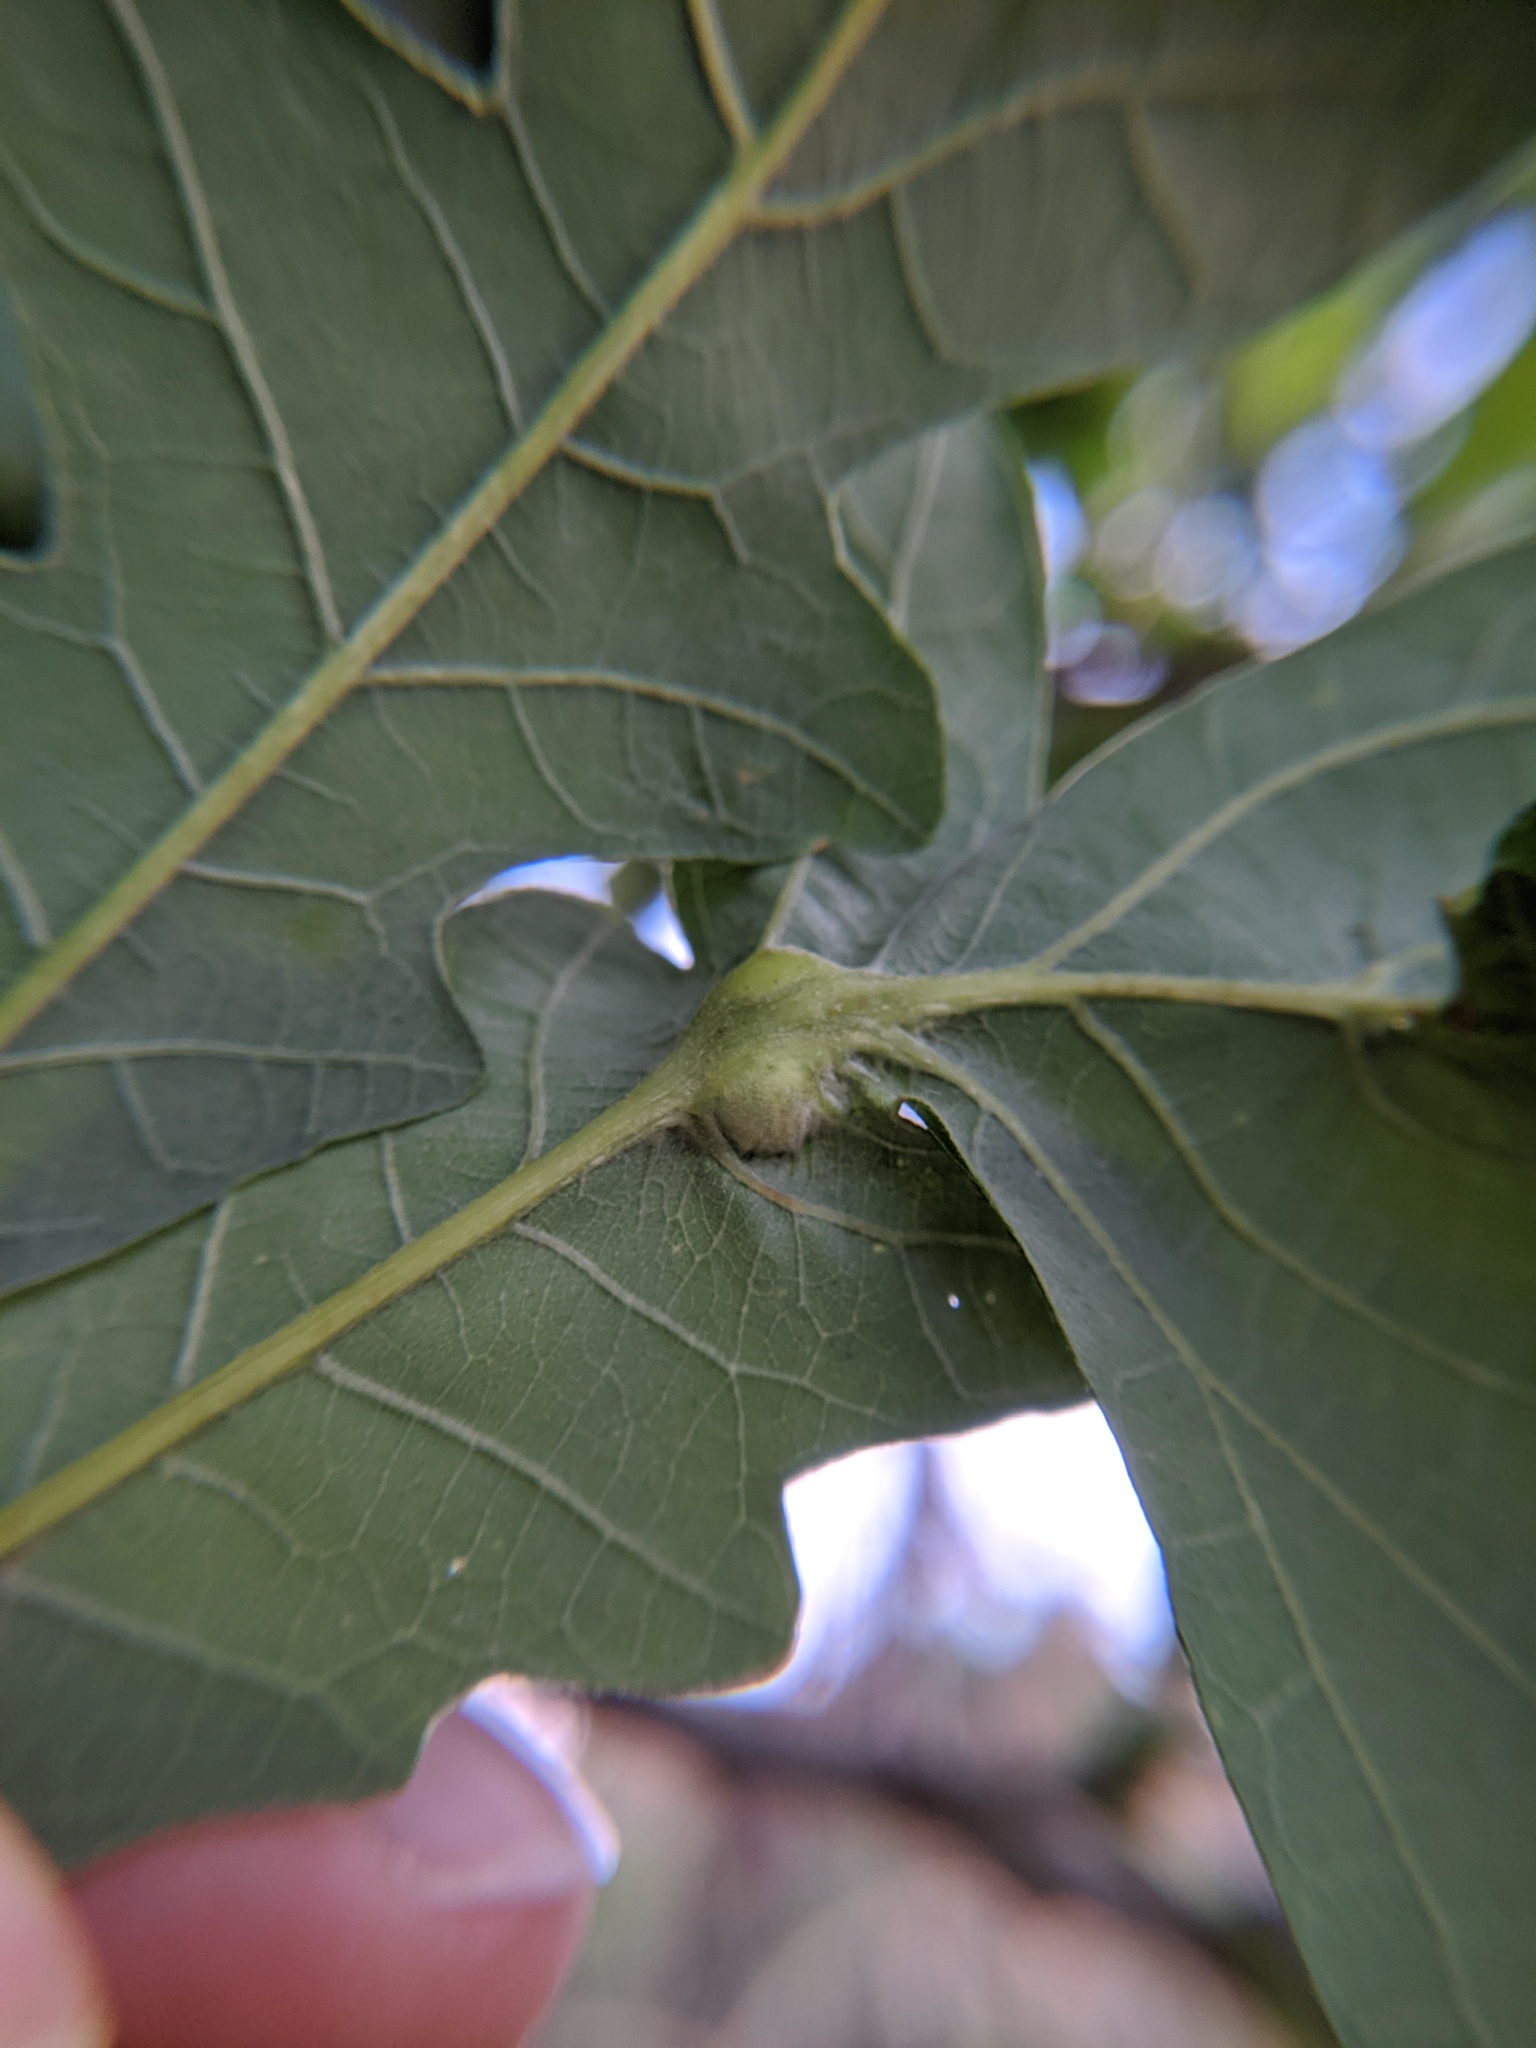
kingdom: Animalia
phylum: Arthropoda
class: Insecta
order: Hymenoptera
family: Cynipidae
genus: Bassettia
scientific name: Bassettia flavipes
